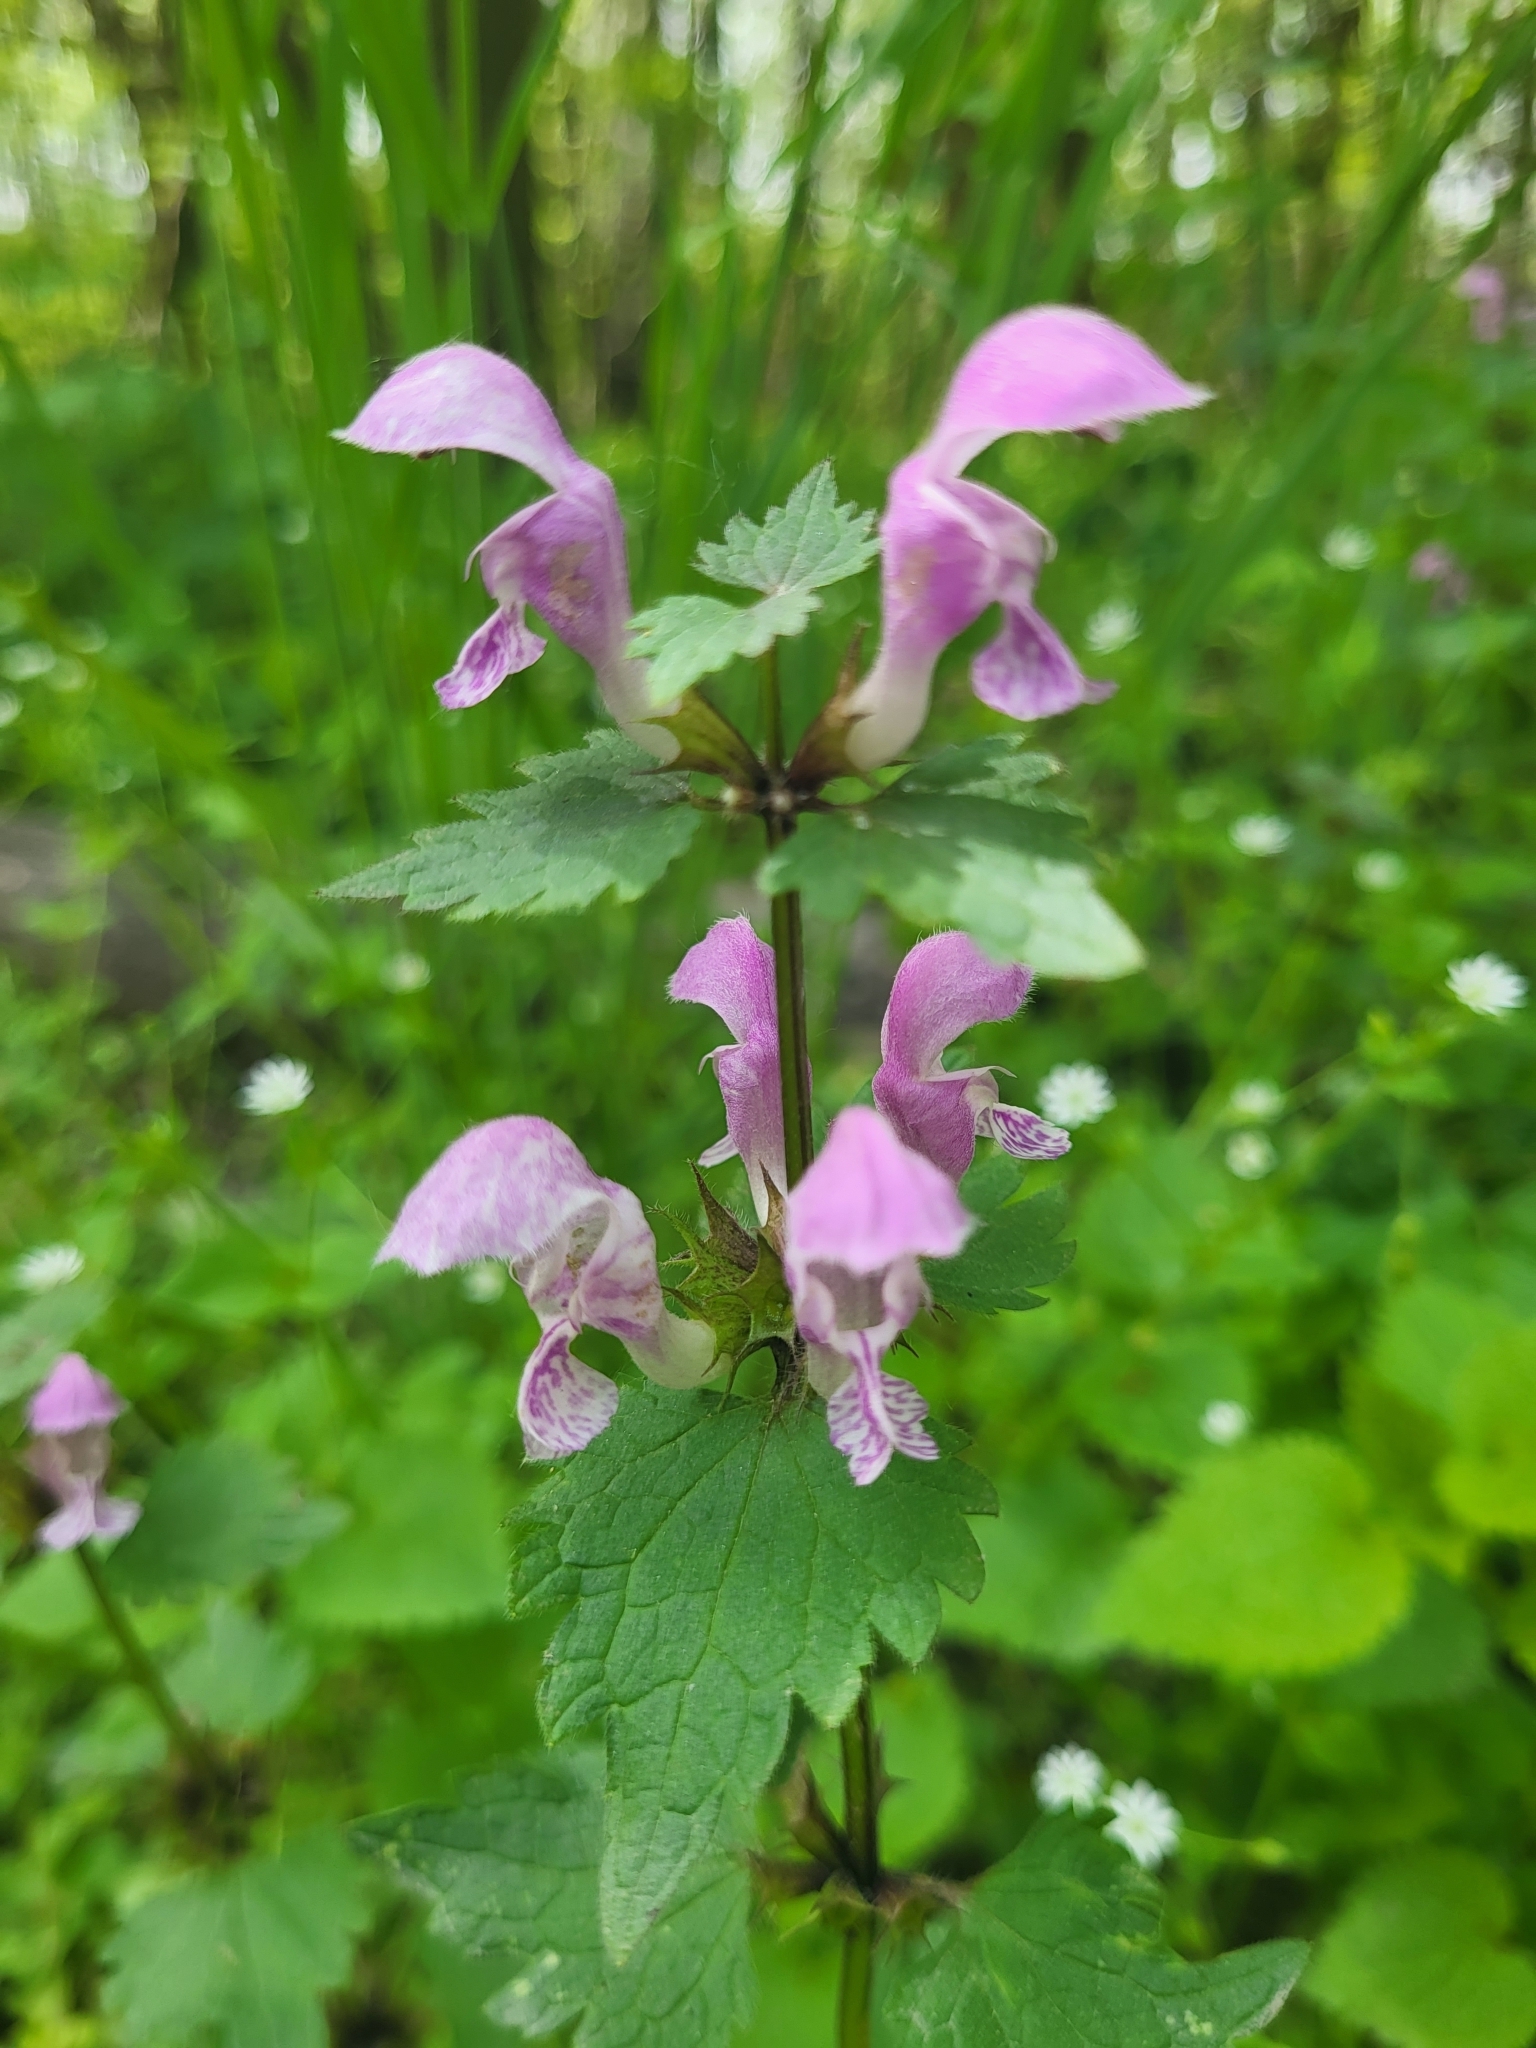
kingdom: Plantae
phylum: Tracheophyta
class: Magnoliopsida
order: Lamiales
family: Lamiaceae
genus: Lamium
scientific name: Lamium maculatum
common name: Spotted dead-nettle
